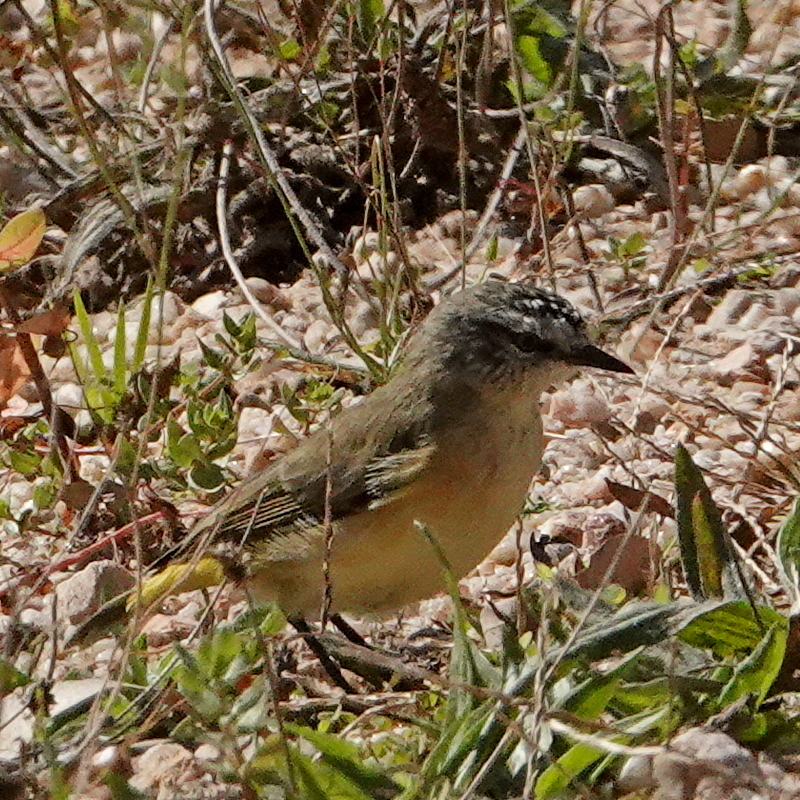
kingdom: Animalia
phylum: Chordata
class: Aves
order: Passeriformes
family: Acanthizidae
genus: Acanthiza
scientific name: Acanthiza chrysorrhoa
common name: Yellow-rumped thornbill
